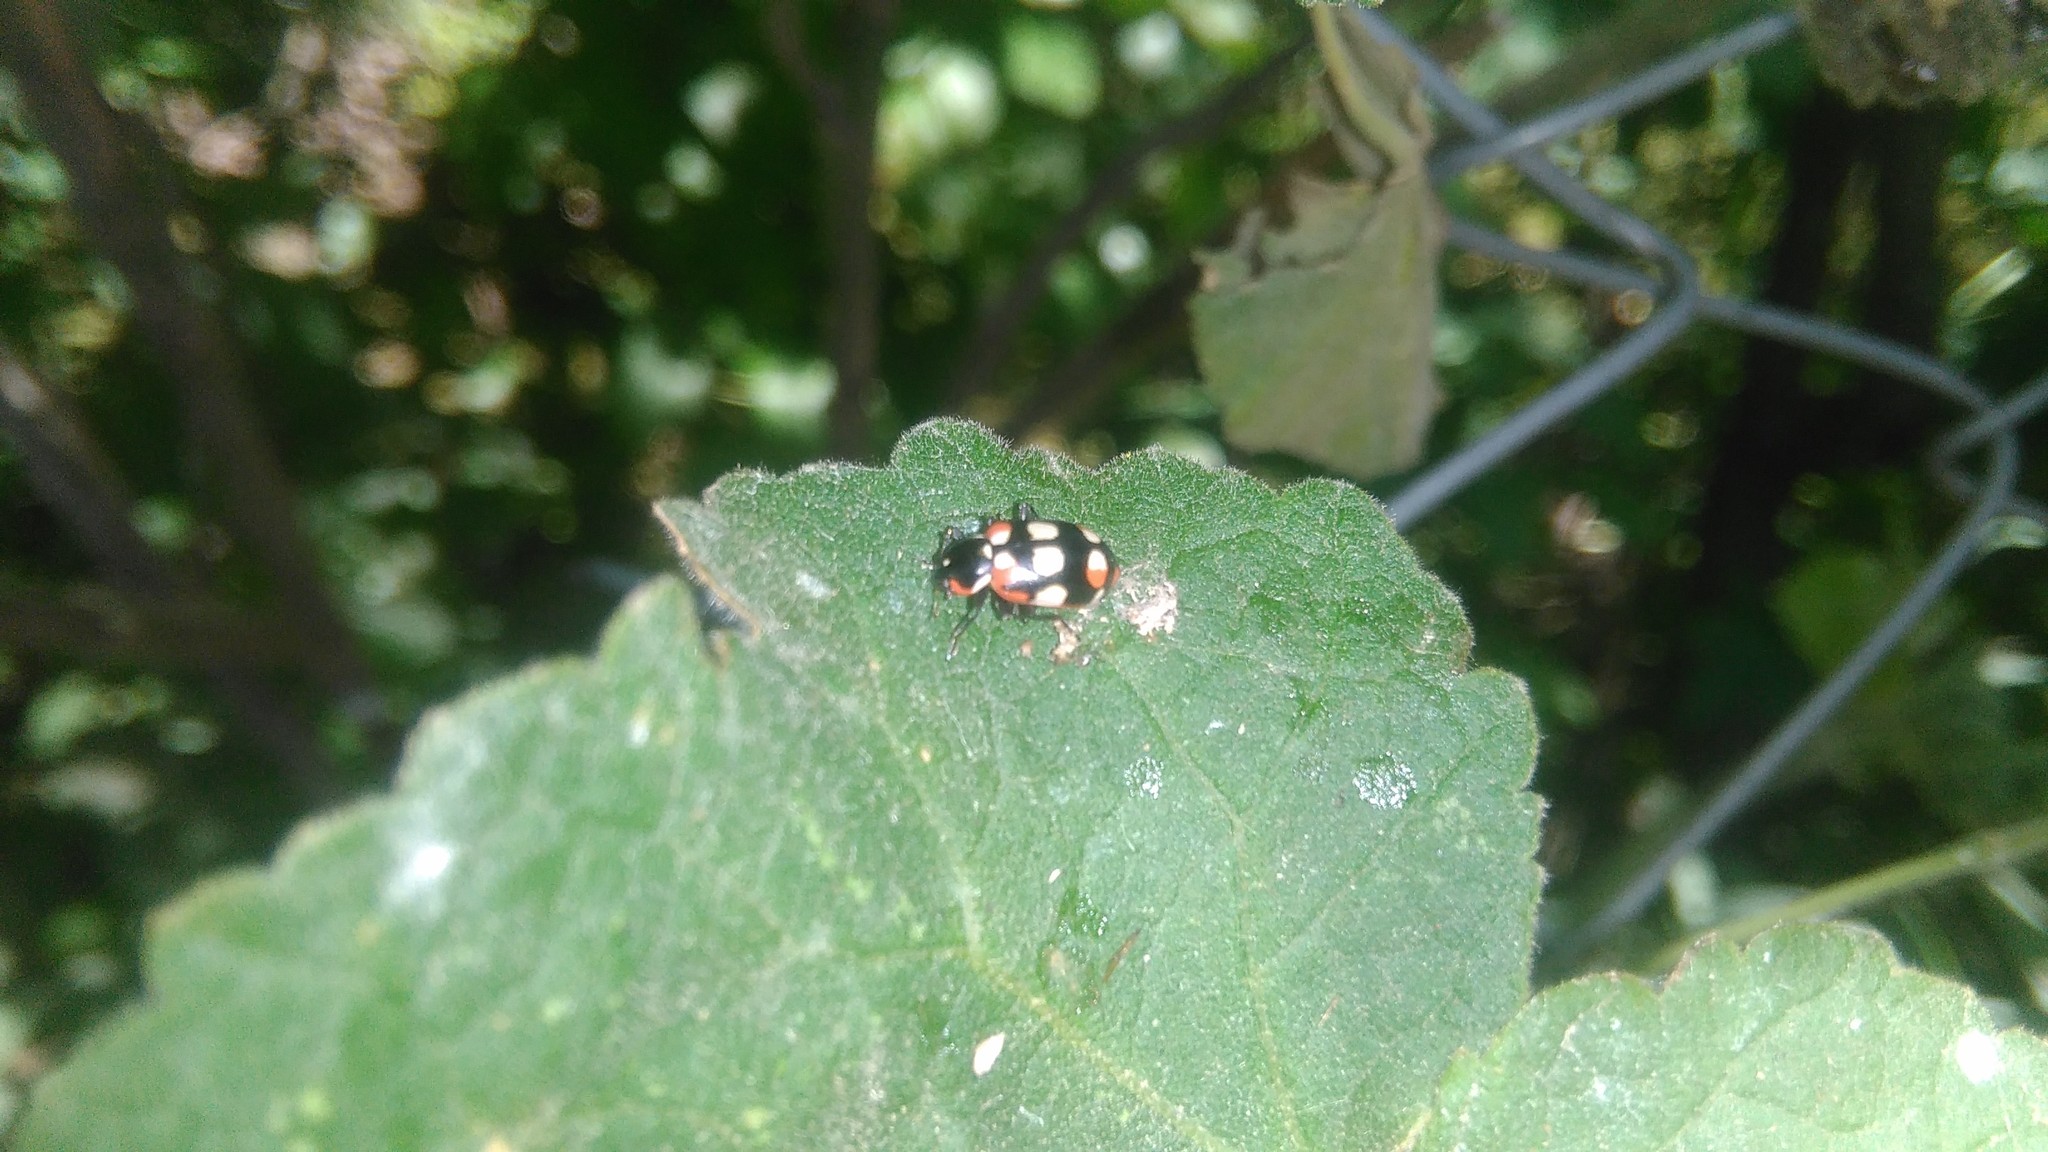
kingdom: Animalia
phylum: Arthropoda
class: Insecta
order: Coleoptera
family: Coccinellidae
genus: Eriopis
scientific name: Eriopis connexa
